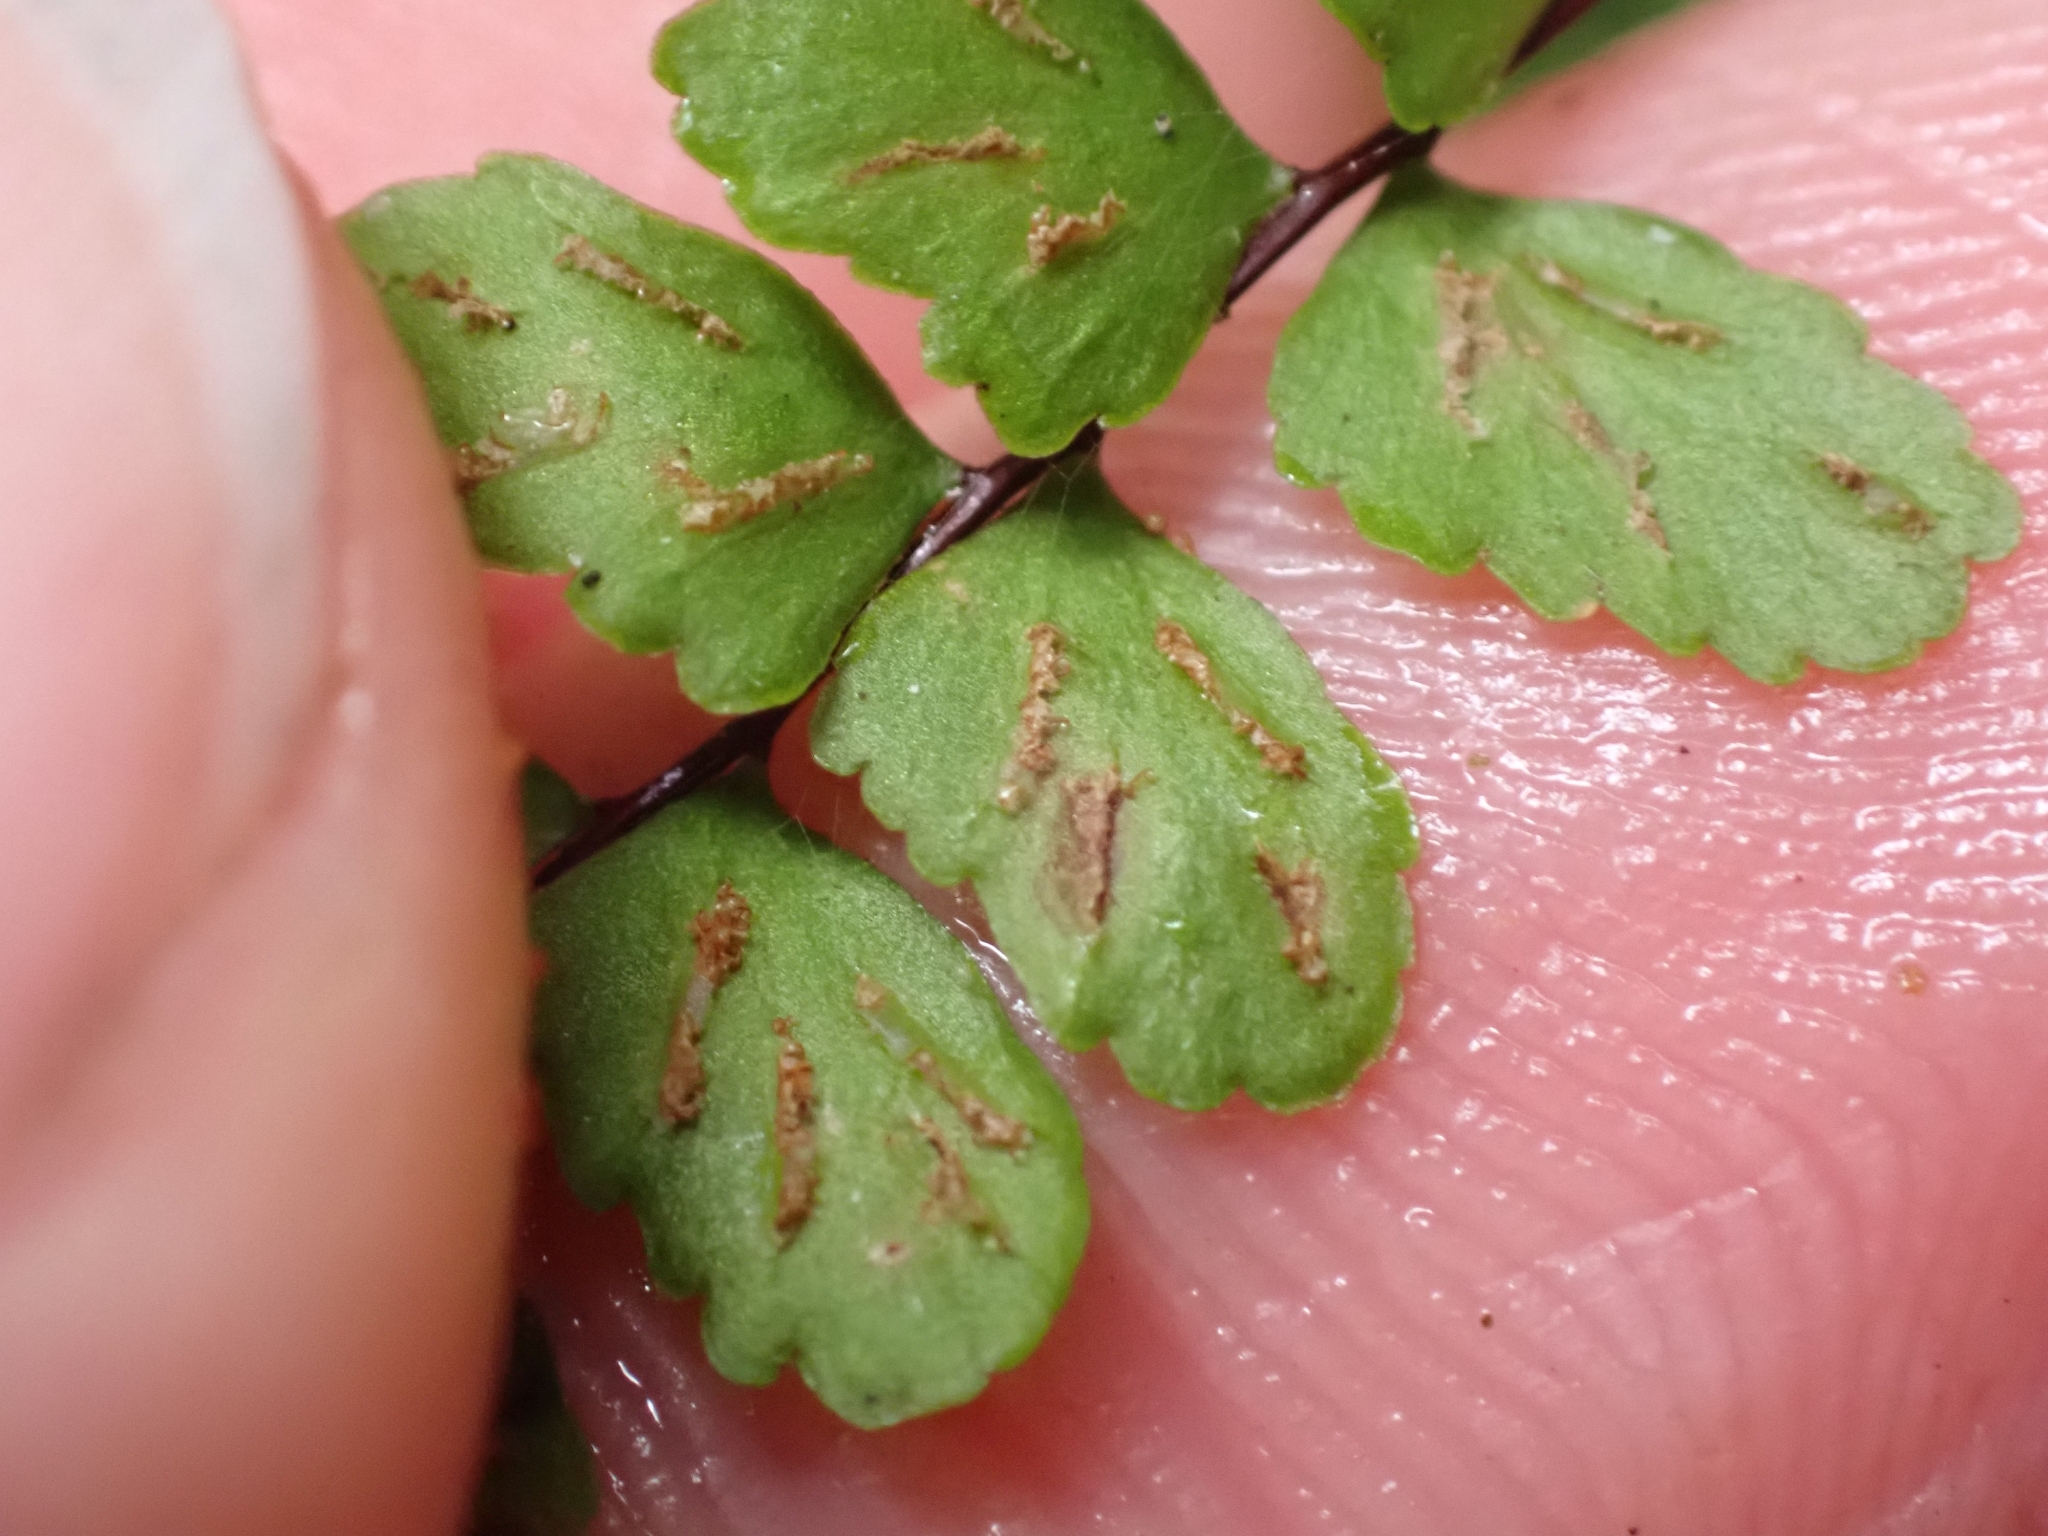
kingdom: Plantae
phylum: Tracheophyta
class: Polypodiopsida
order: Polypodiales
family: Aspleniaceae
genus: Asplenium
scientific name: Asplenium trichomanes
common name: Maidenhair spleenwort
